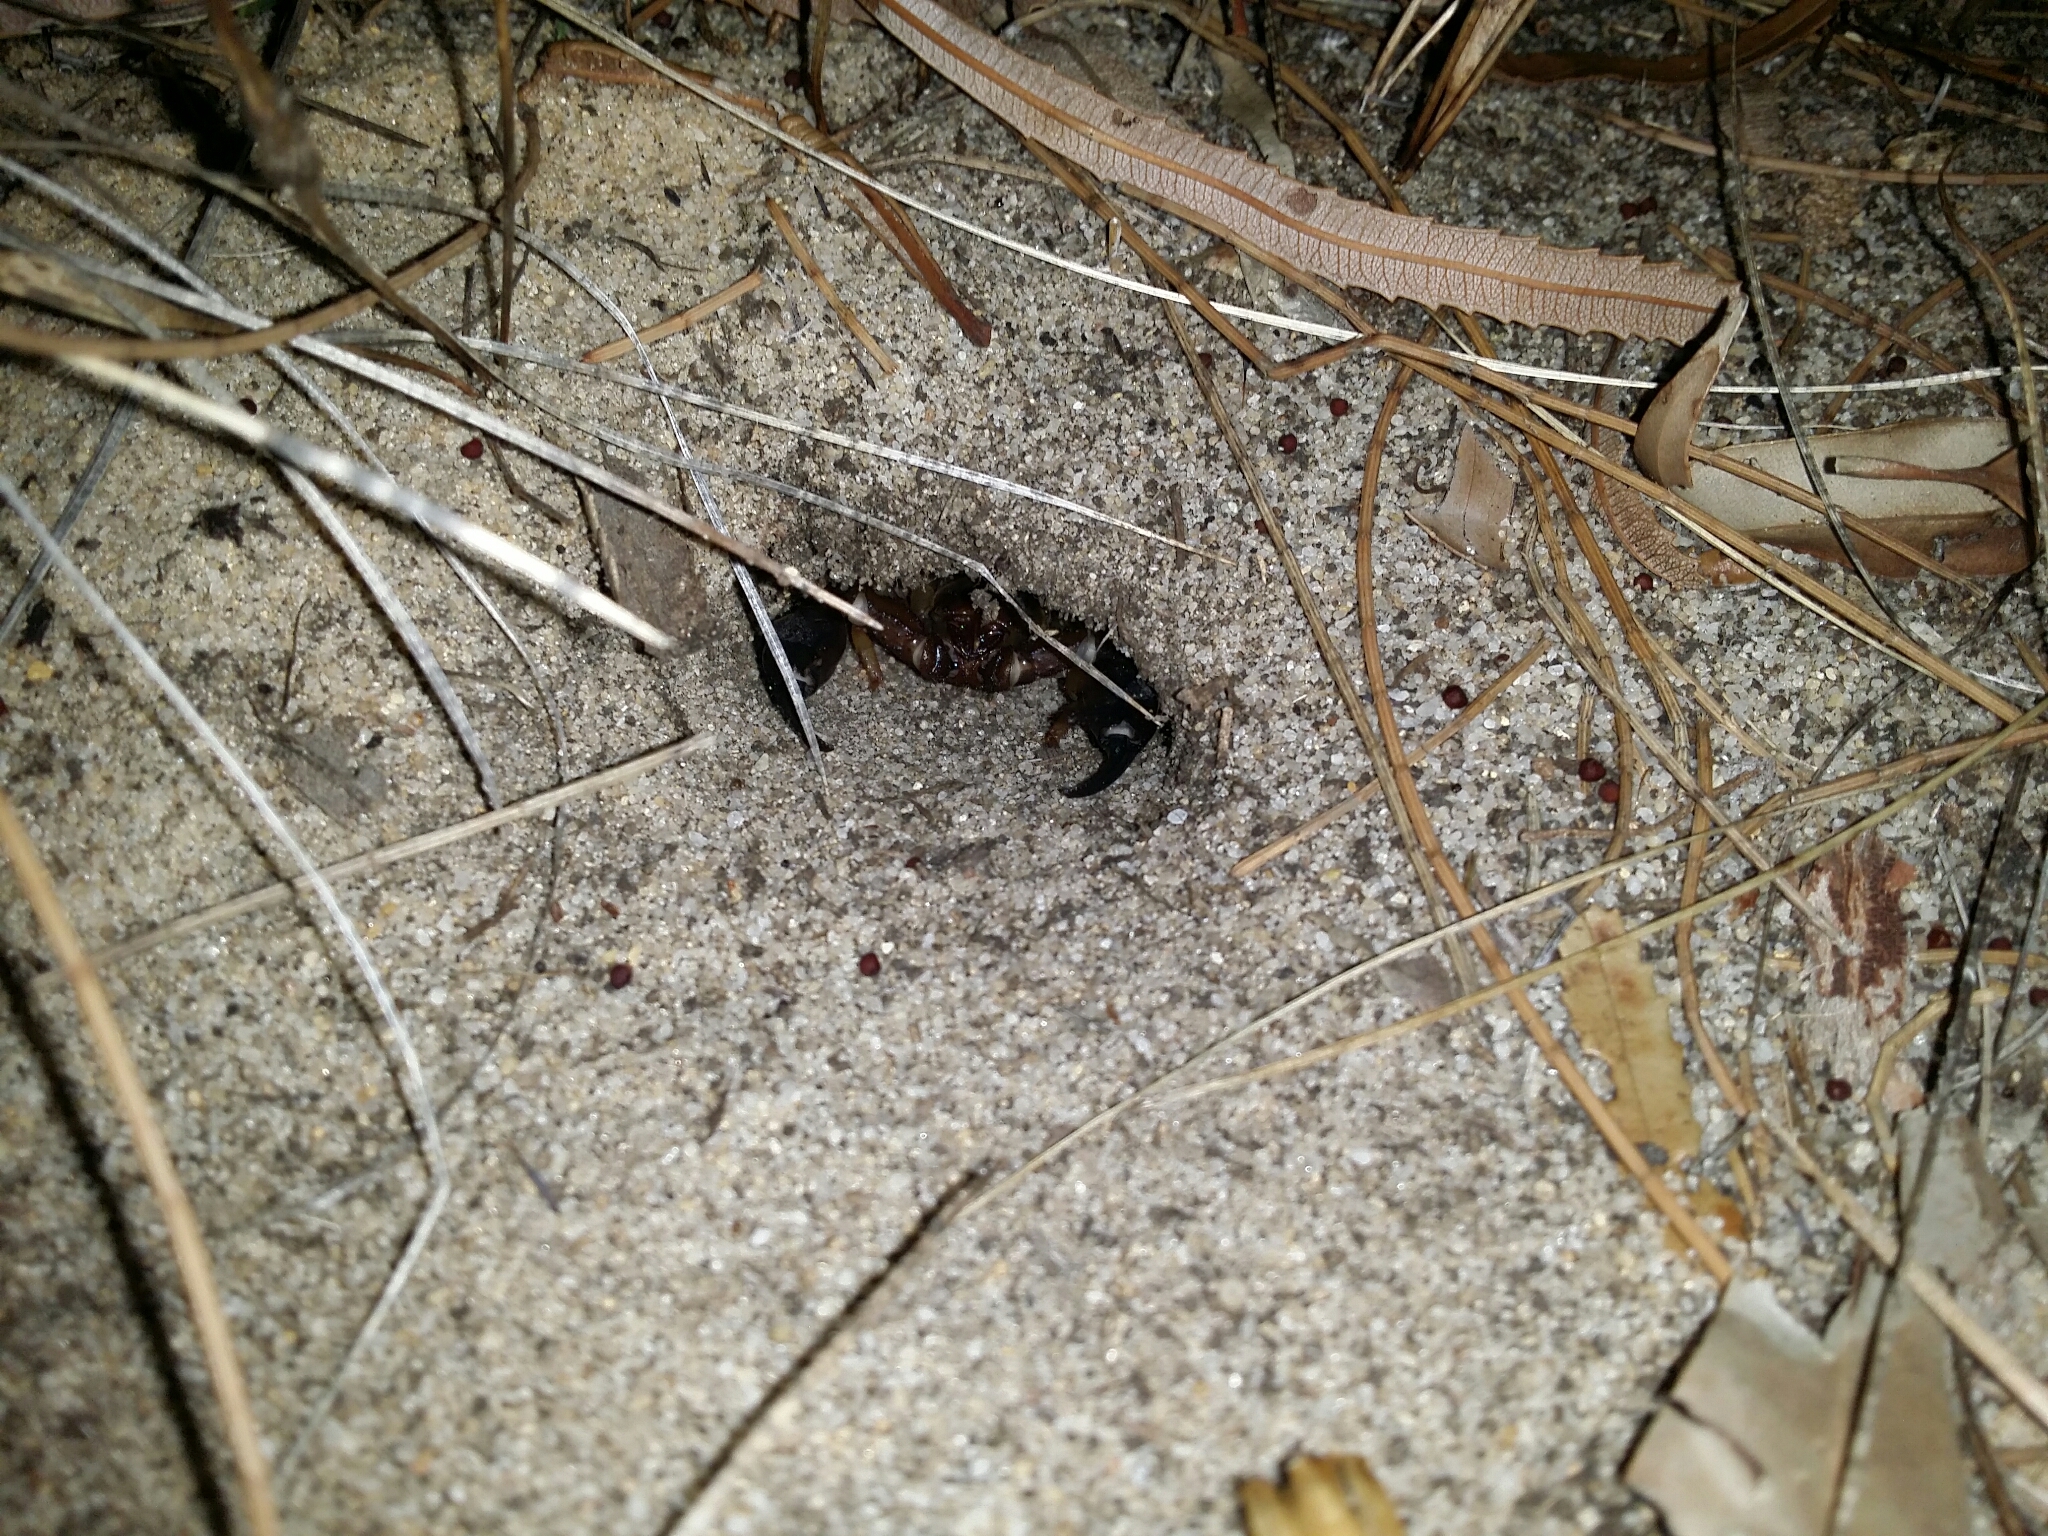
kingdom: Animalia
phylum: Arthropoda
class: Arachnida
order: Scorpiones
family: Scorpionidae
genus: Urodacus
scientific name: Urodacus novaehollandiae
